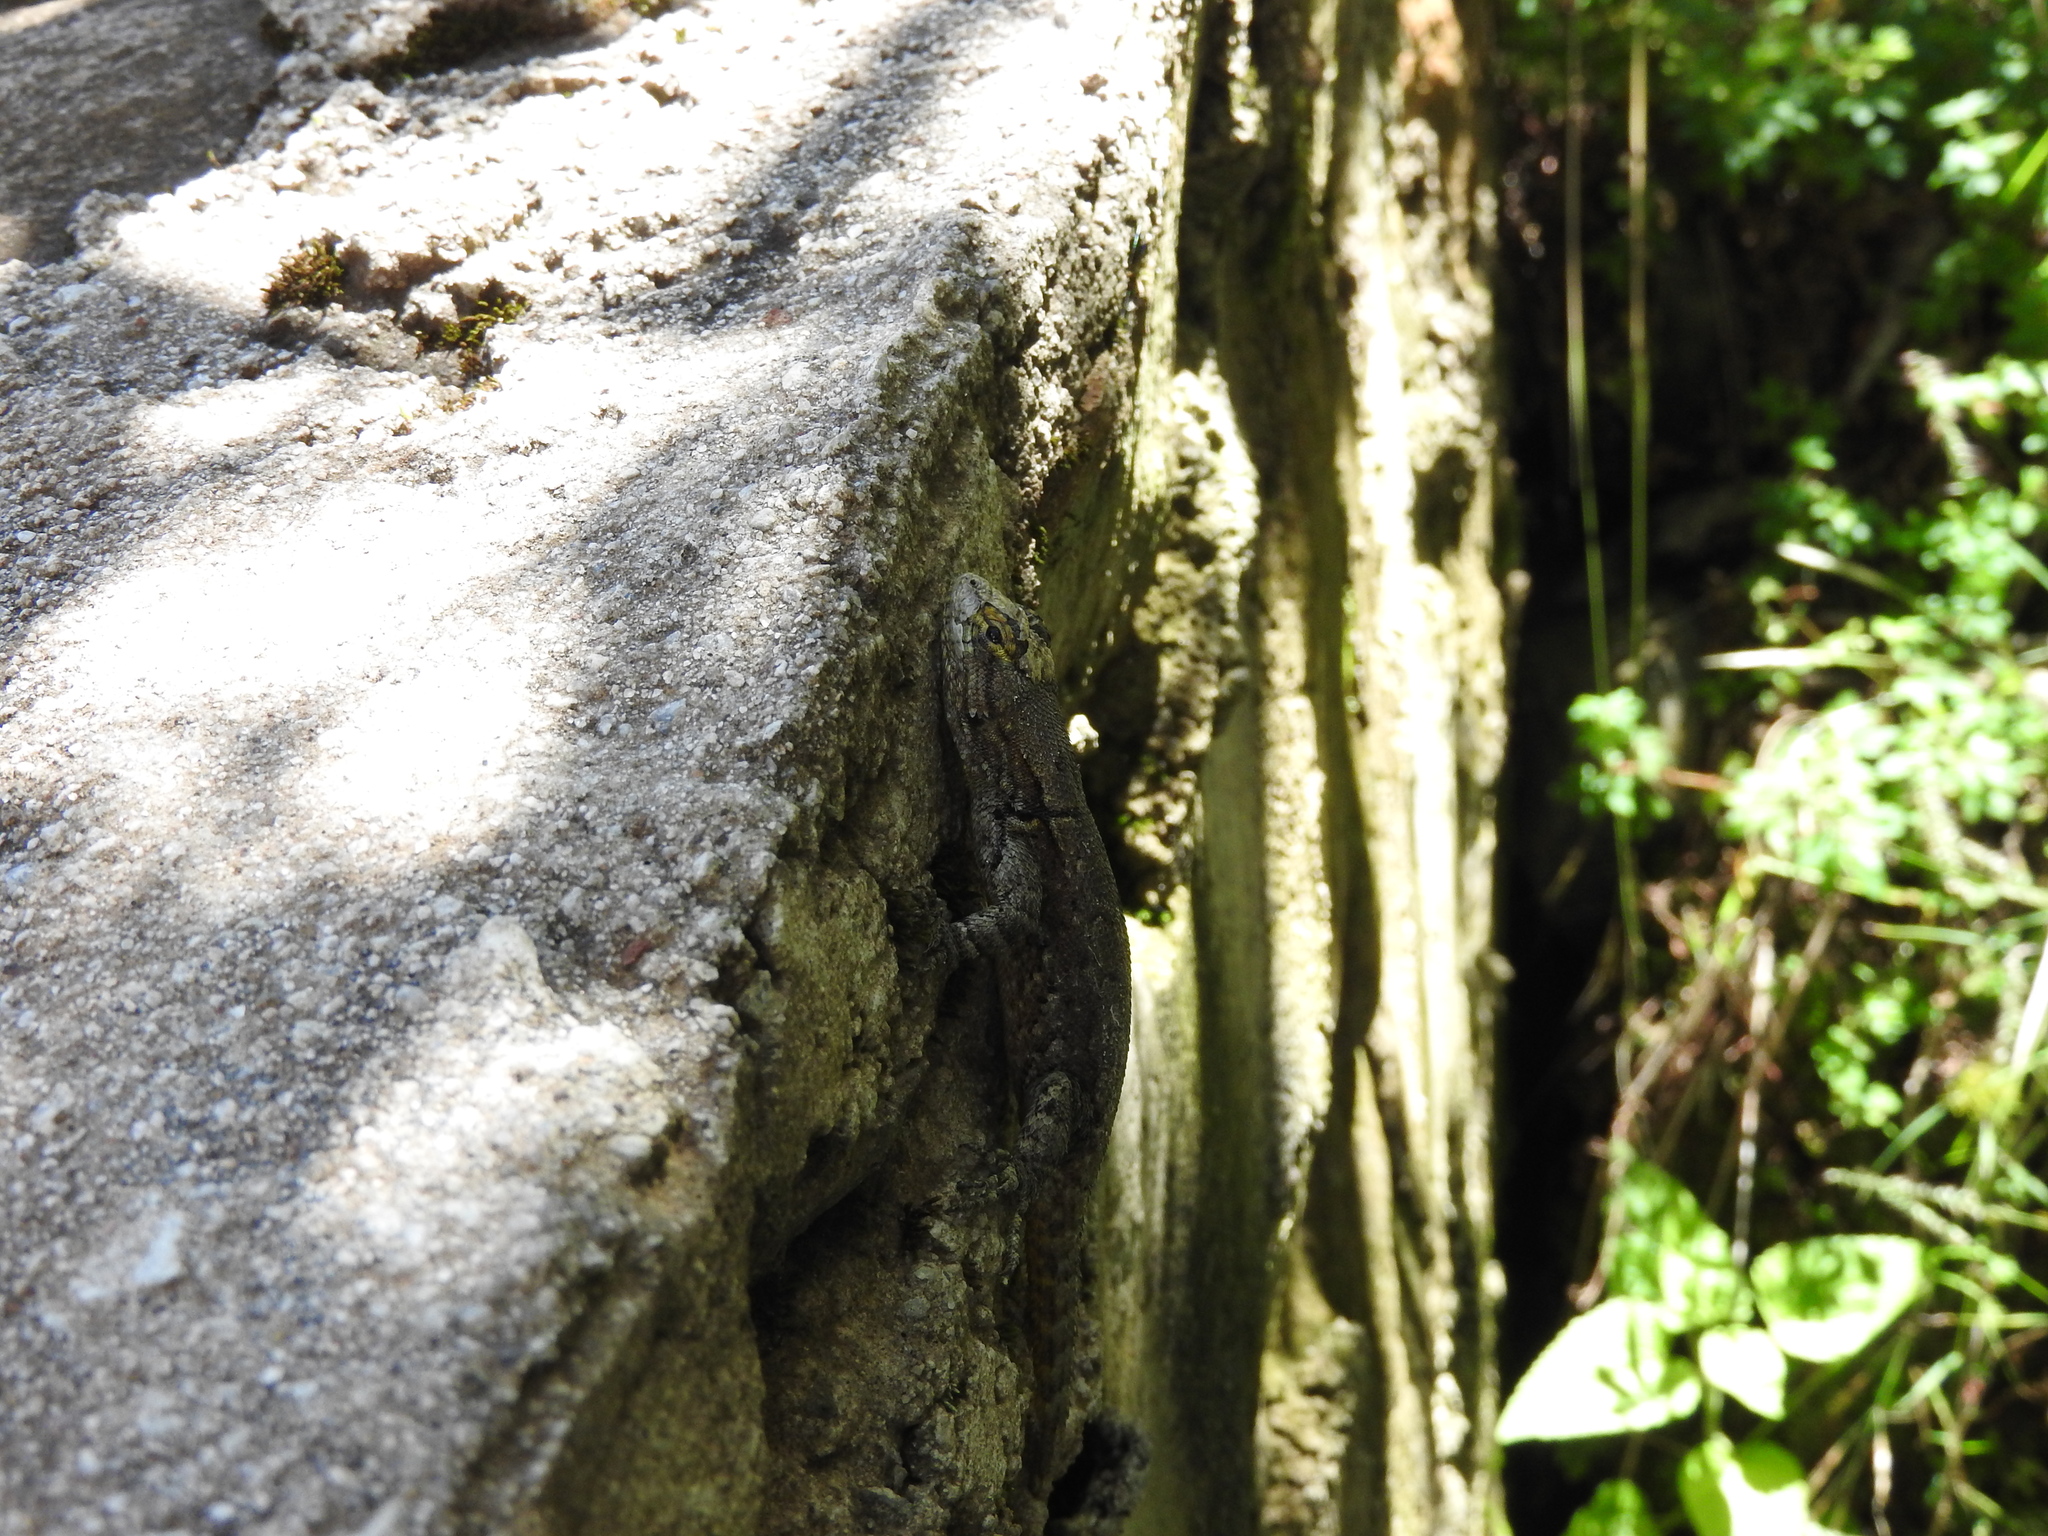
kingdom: Animalia
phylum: Chordata
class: Squamata
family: Phrynosomatidae
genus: Sceloporus
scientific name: Sceloporus grammicus
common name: Mesquite lizard
